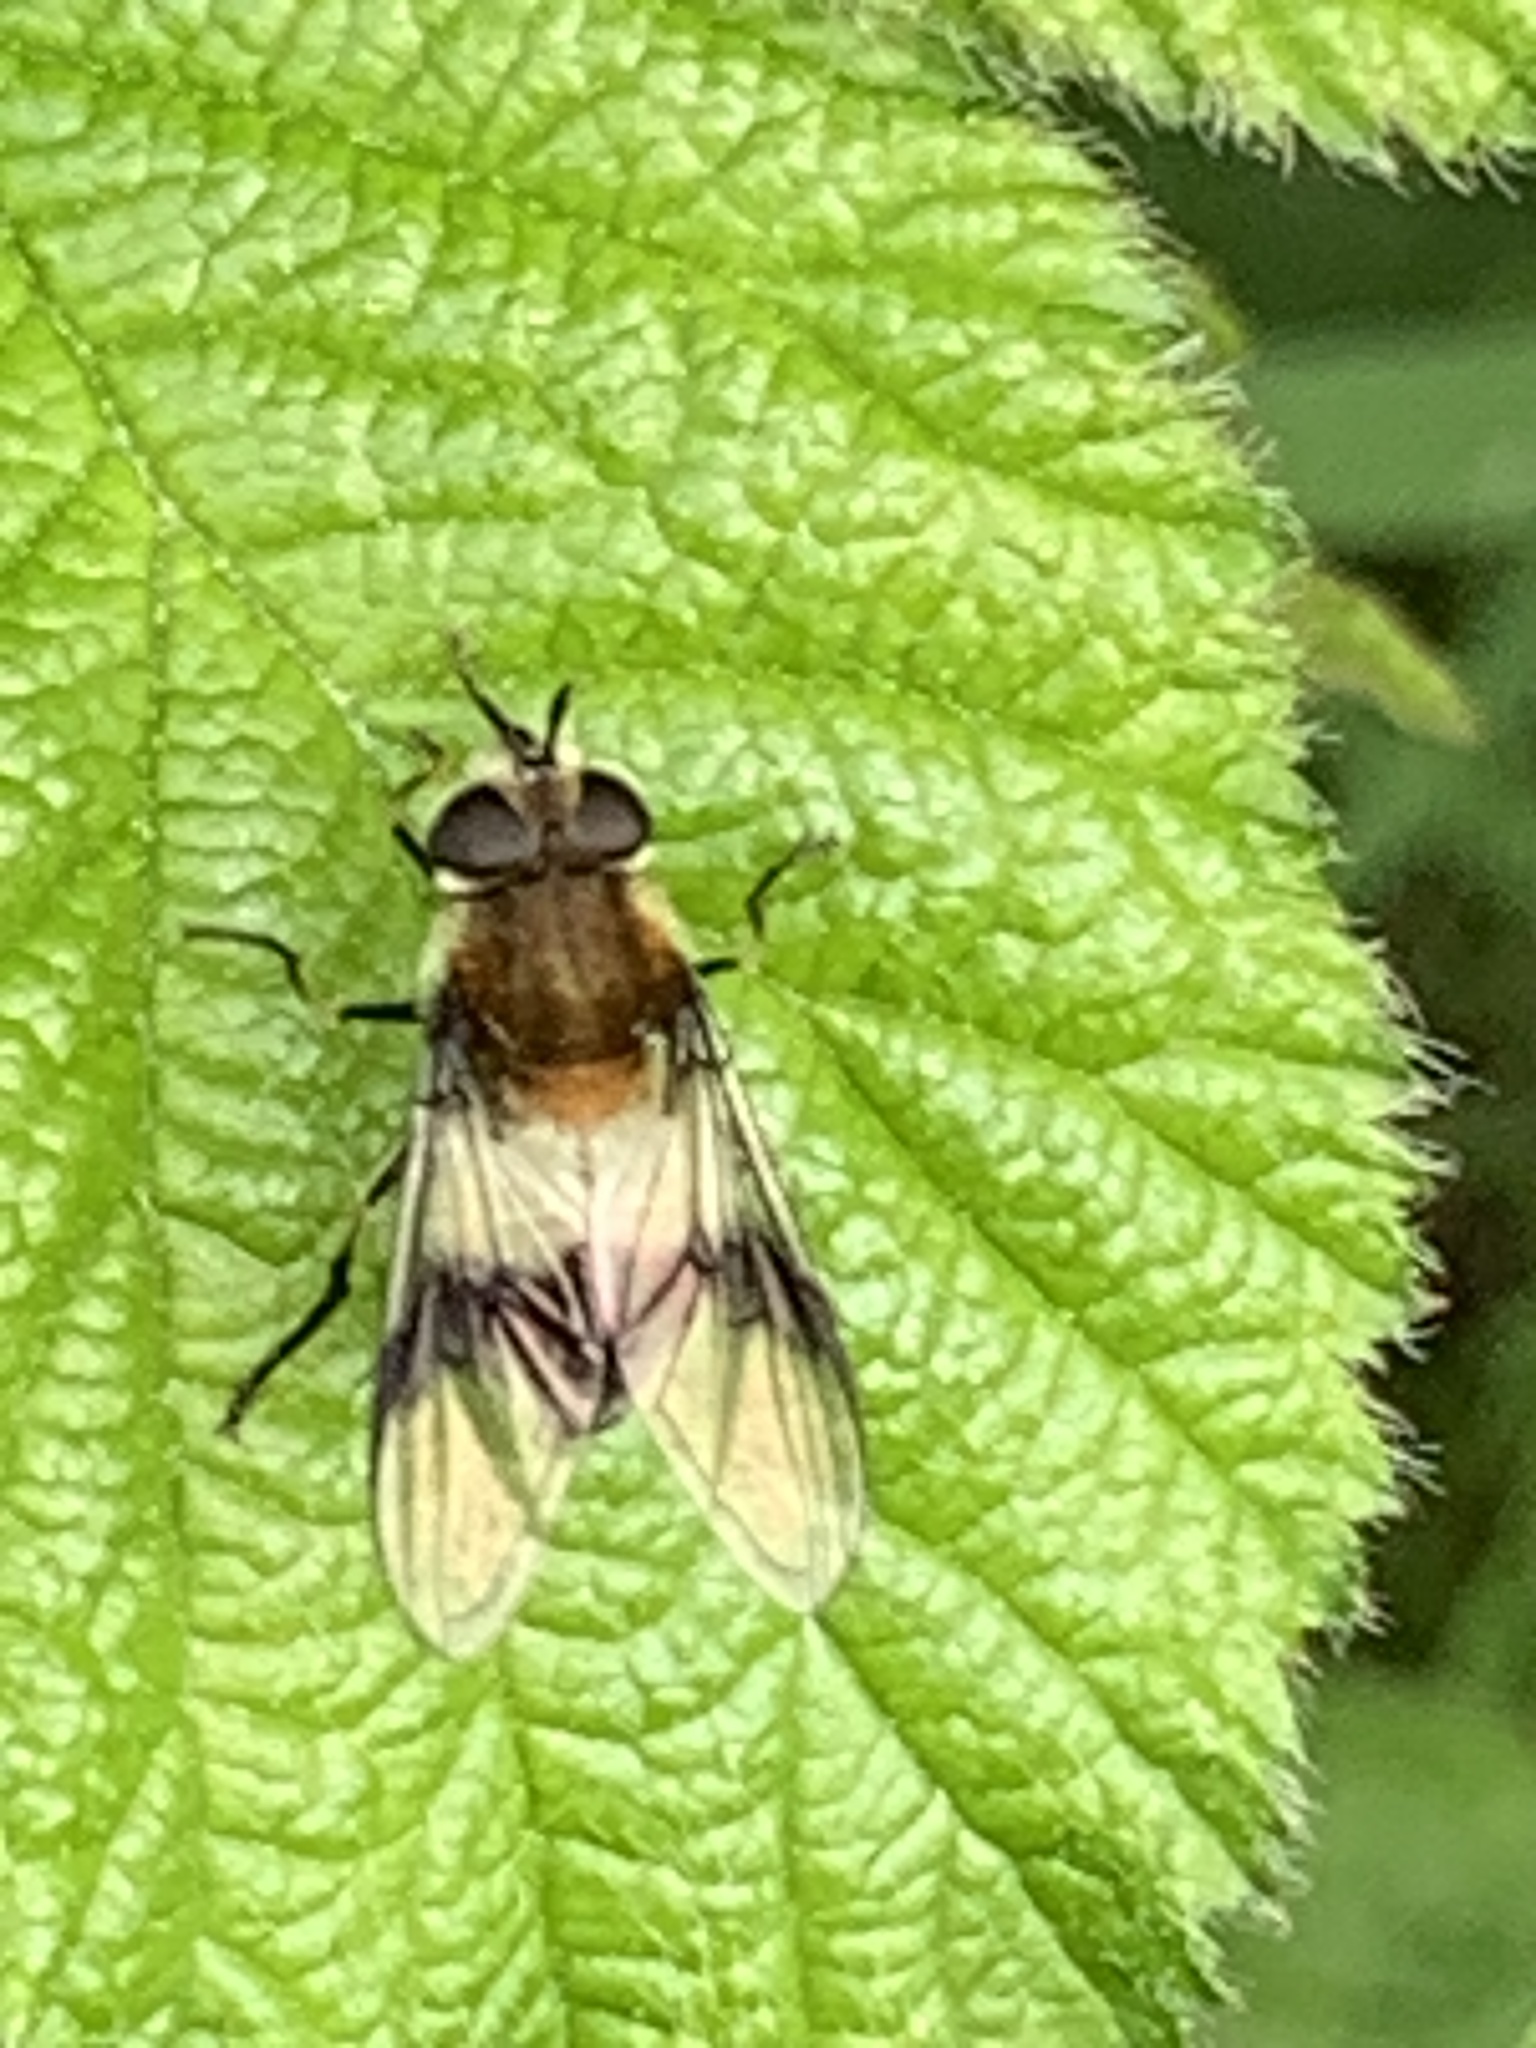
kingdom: Animalia
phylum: Arthropoda
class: Insecta
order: Diptera
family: Syrphidae
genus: Leucozona
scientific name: Leucozona lucorum
